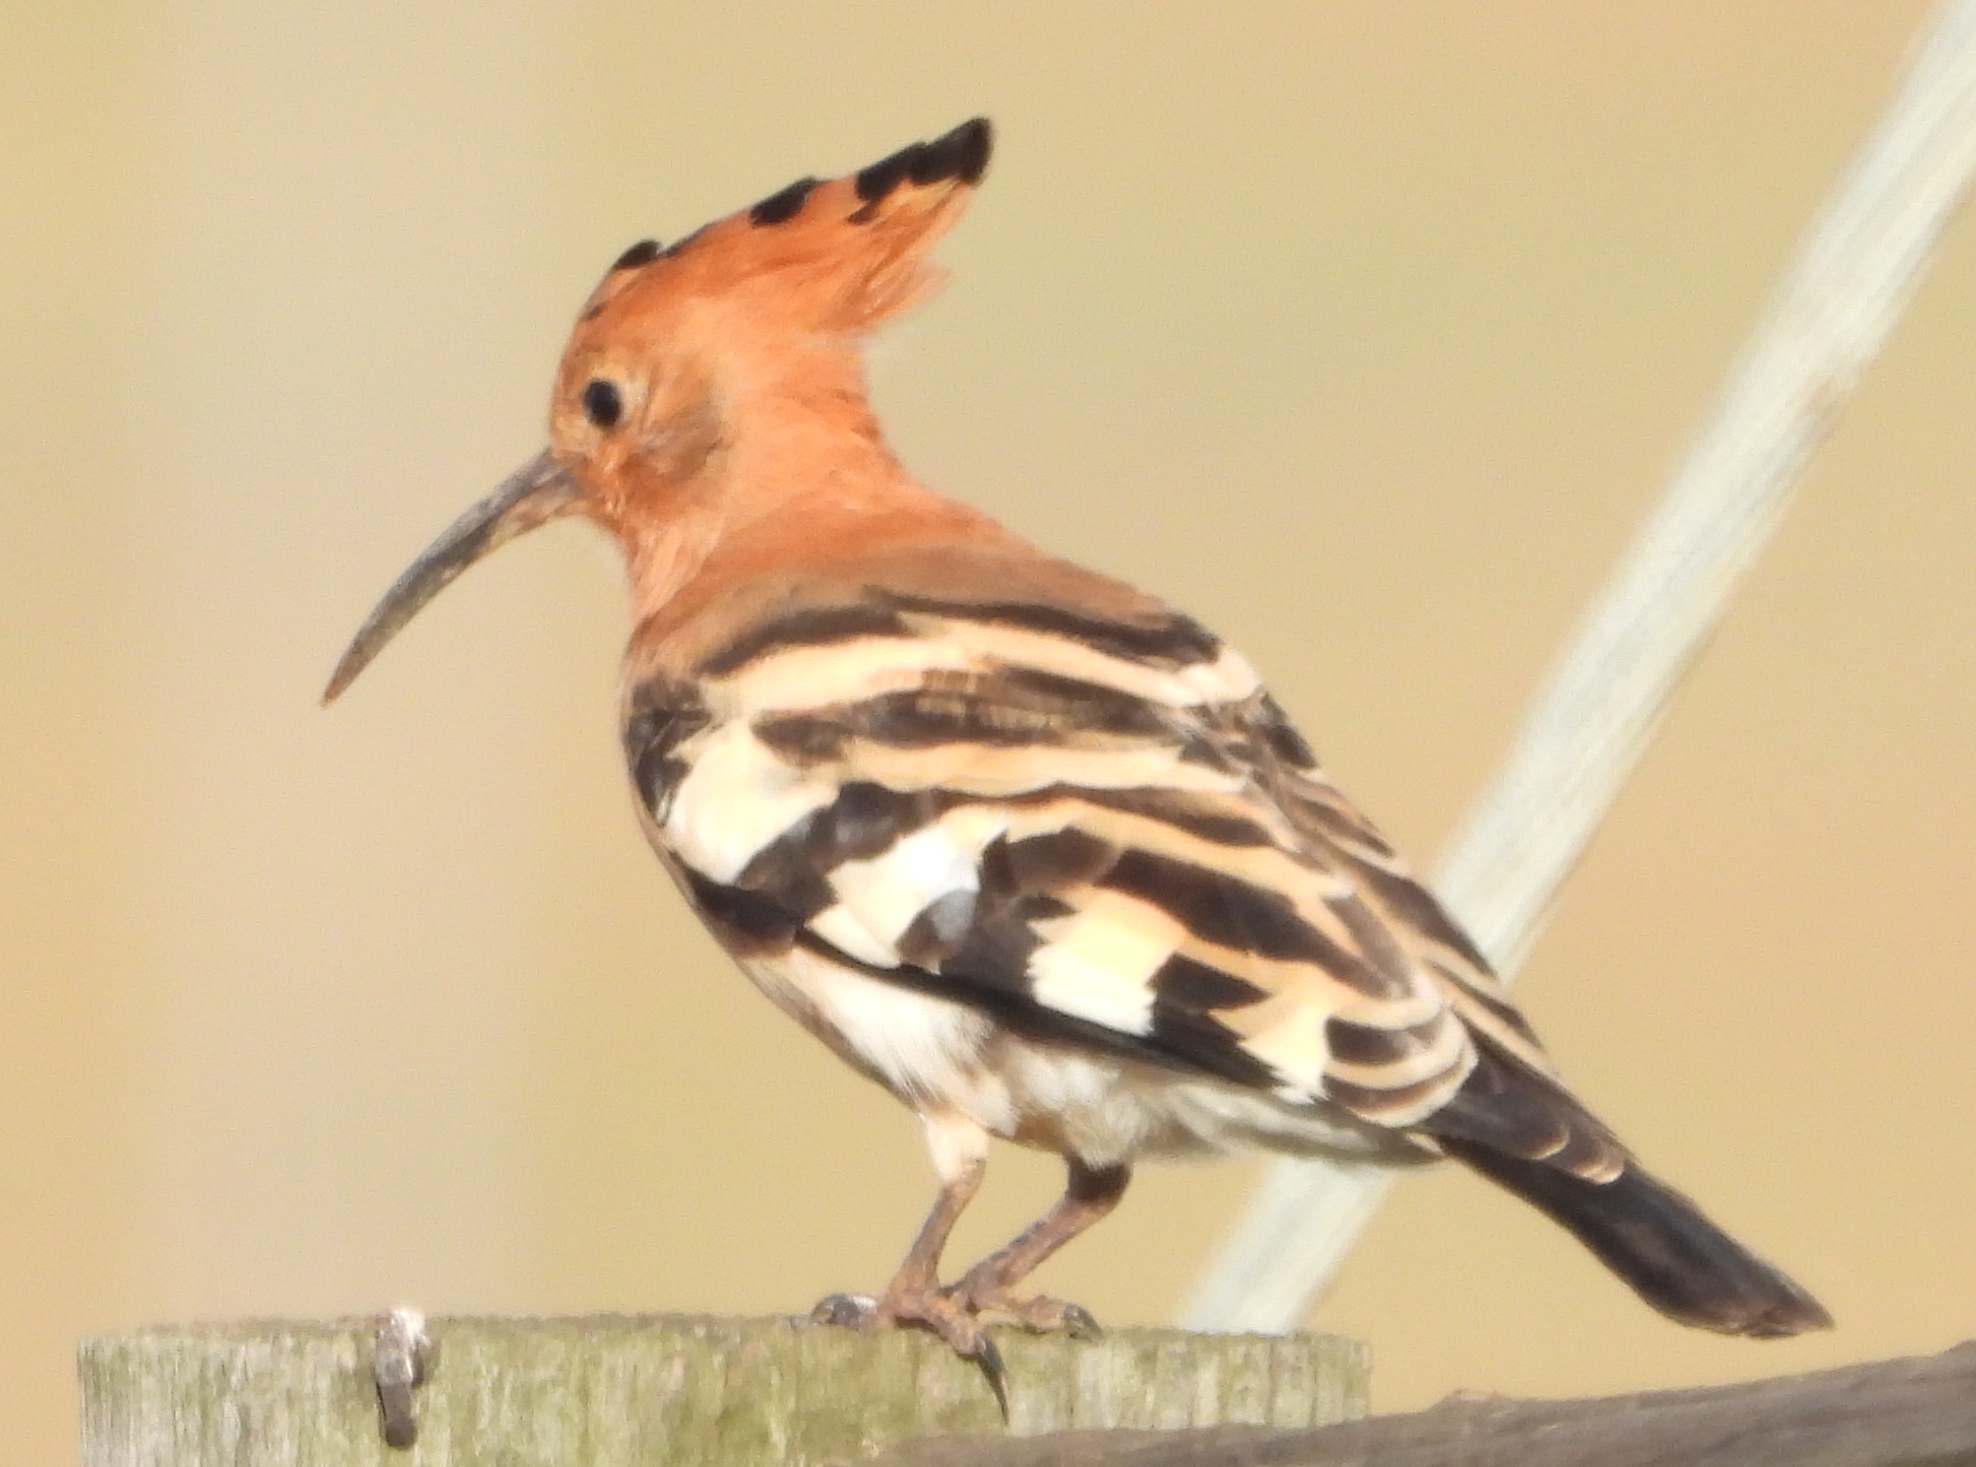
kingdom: Animalia
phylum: Chordata
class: Aves
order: Bucerotiformes
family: Upupidae
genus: Upupa
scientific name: Upupa africana
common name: African hoopoe
